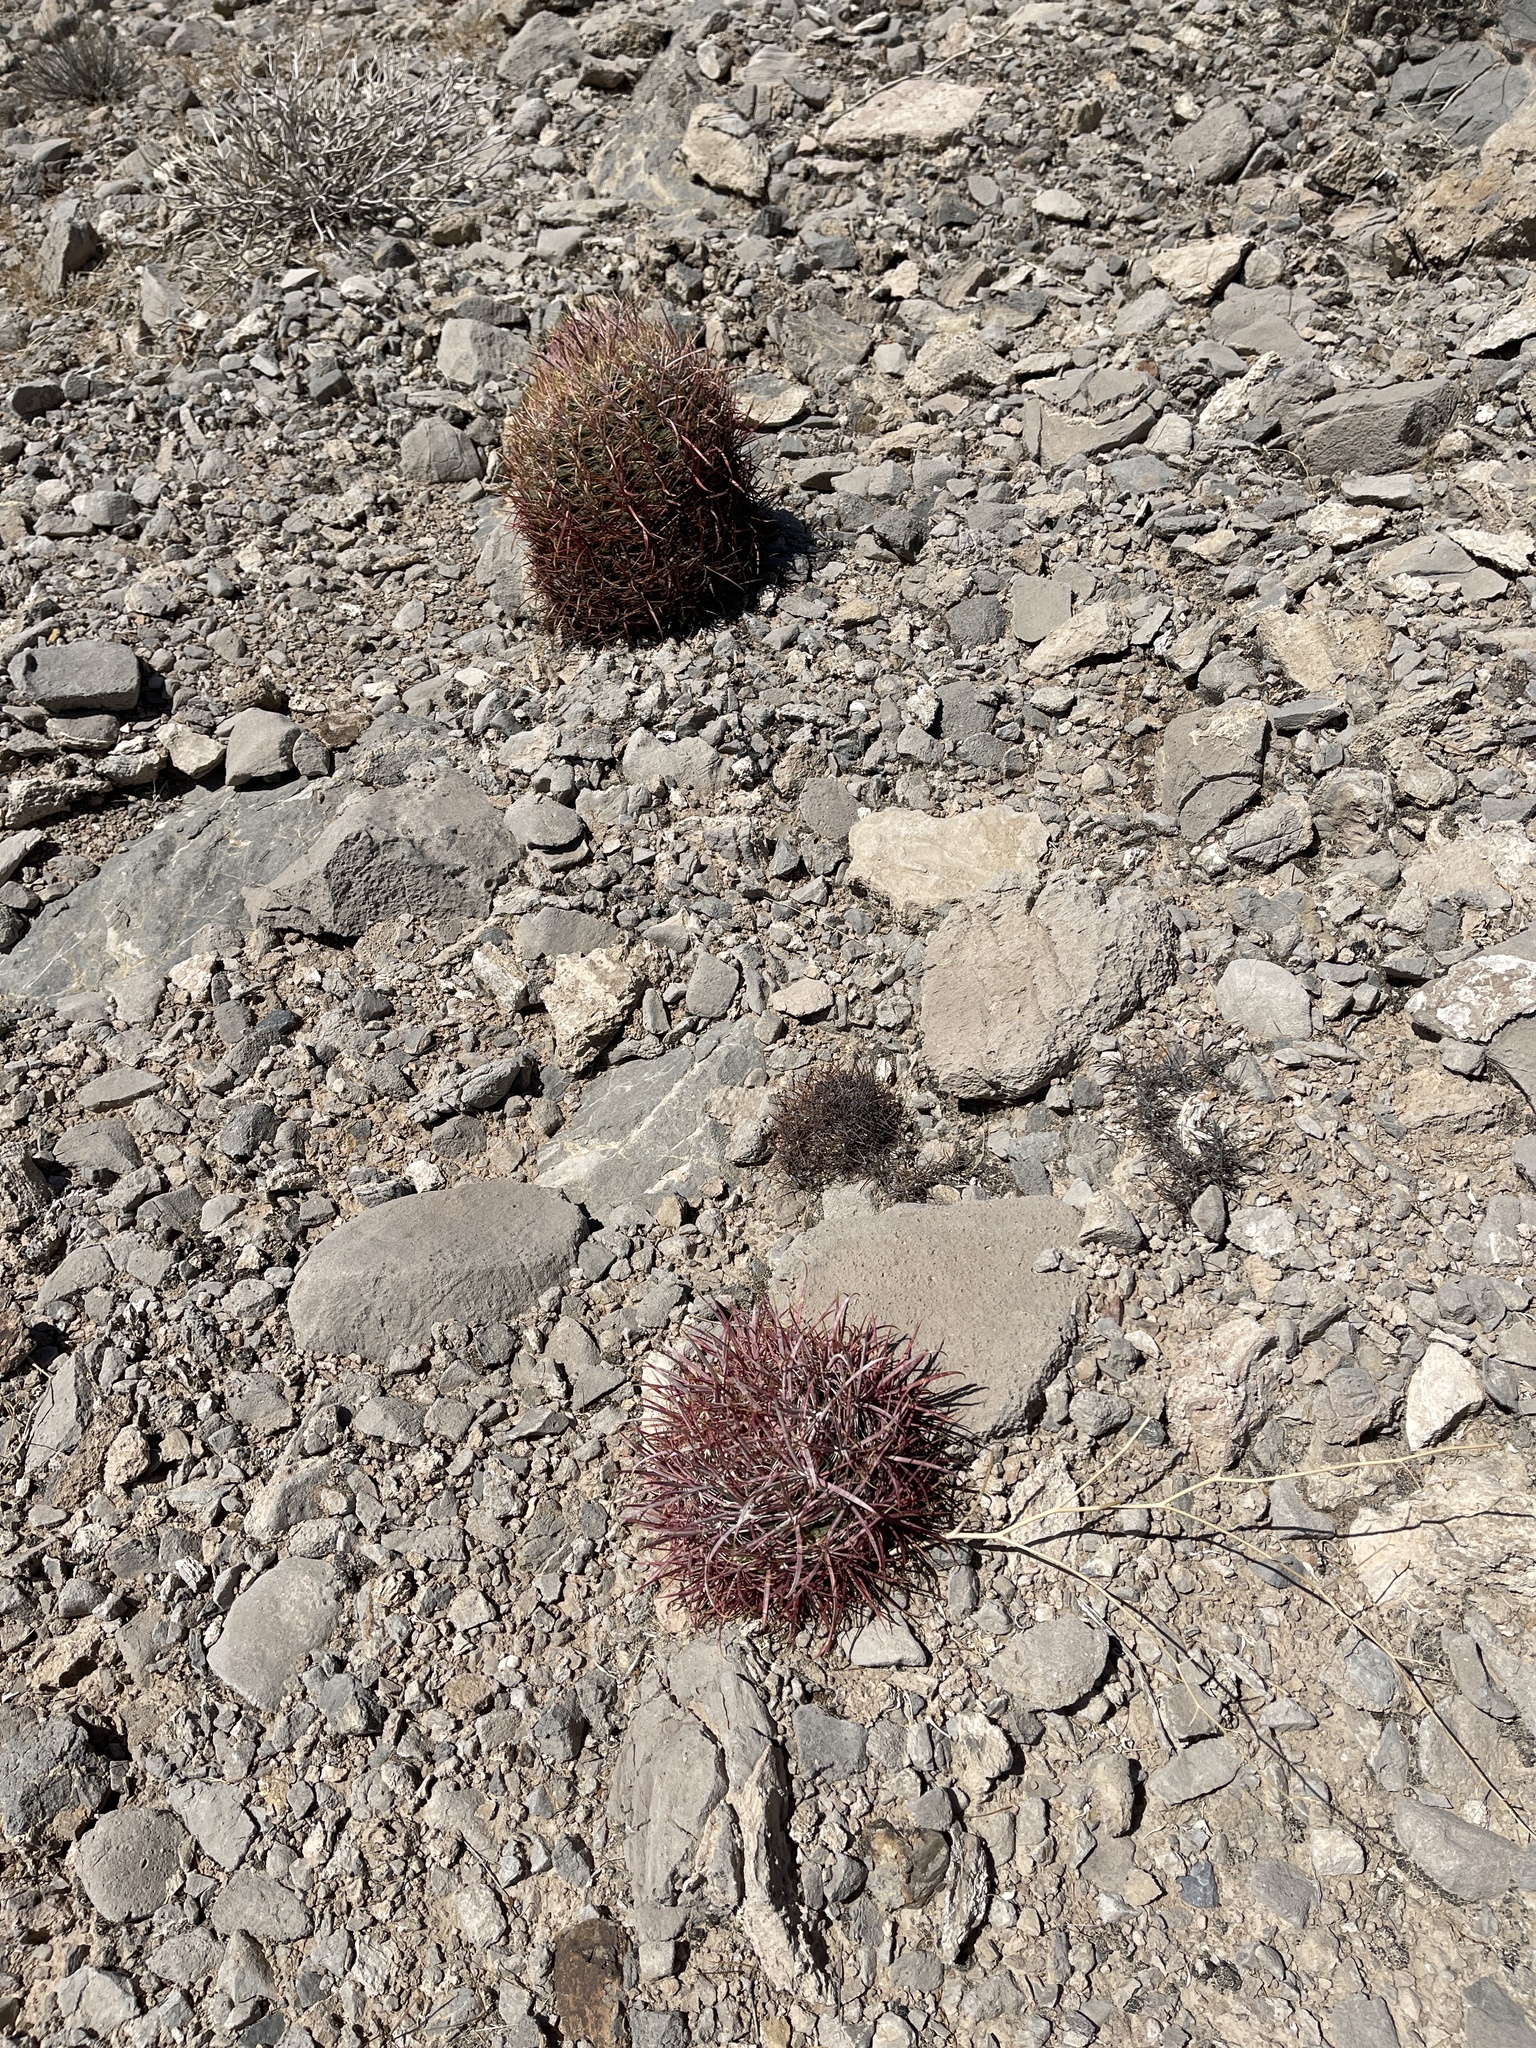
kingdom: Plantae
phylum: Tracheophyta
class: Magnoliopsida
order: Caryophyllales
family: Cactaceae
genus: Ferocactus
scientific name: Ferocactus cylindraceus
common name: California barrel cactus
